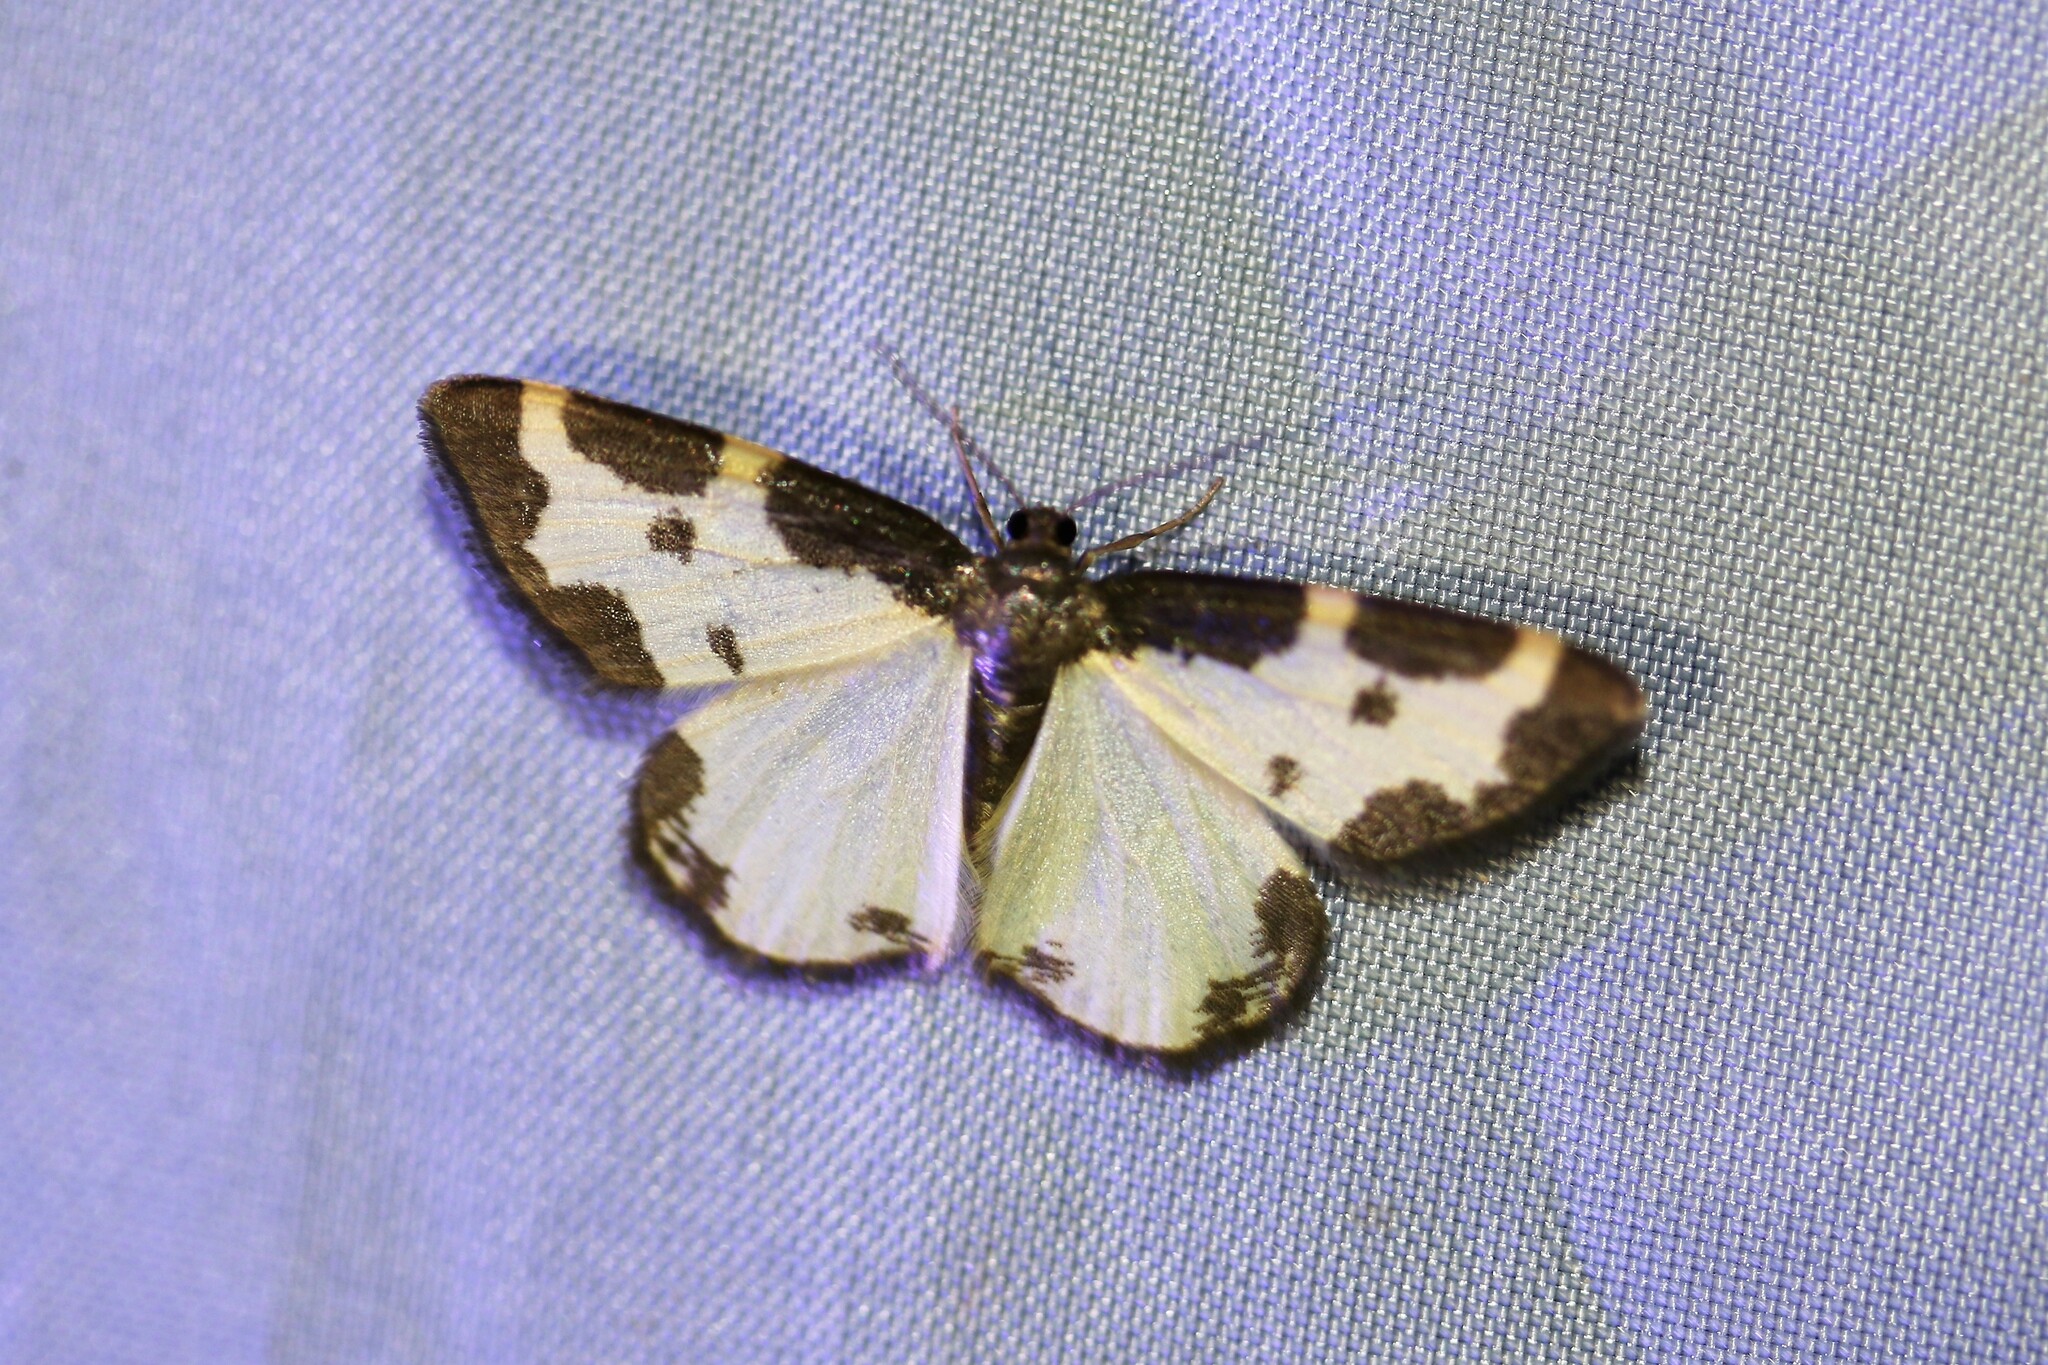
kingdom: Animalia
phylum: Arthropoda
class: Insecta
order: Lepidoptera
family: Geometridae
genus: Lomaspilis
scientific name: Lomaspilis marginata
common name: Clouded border
